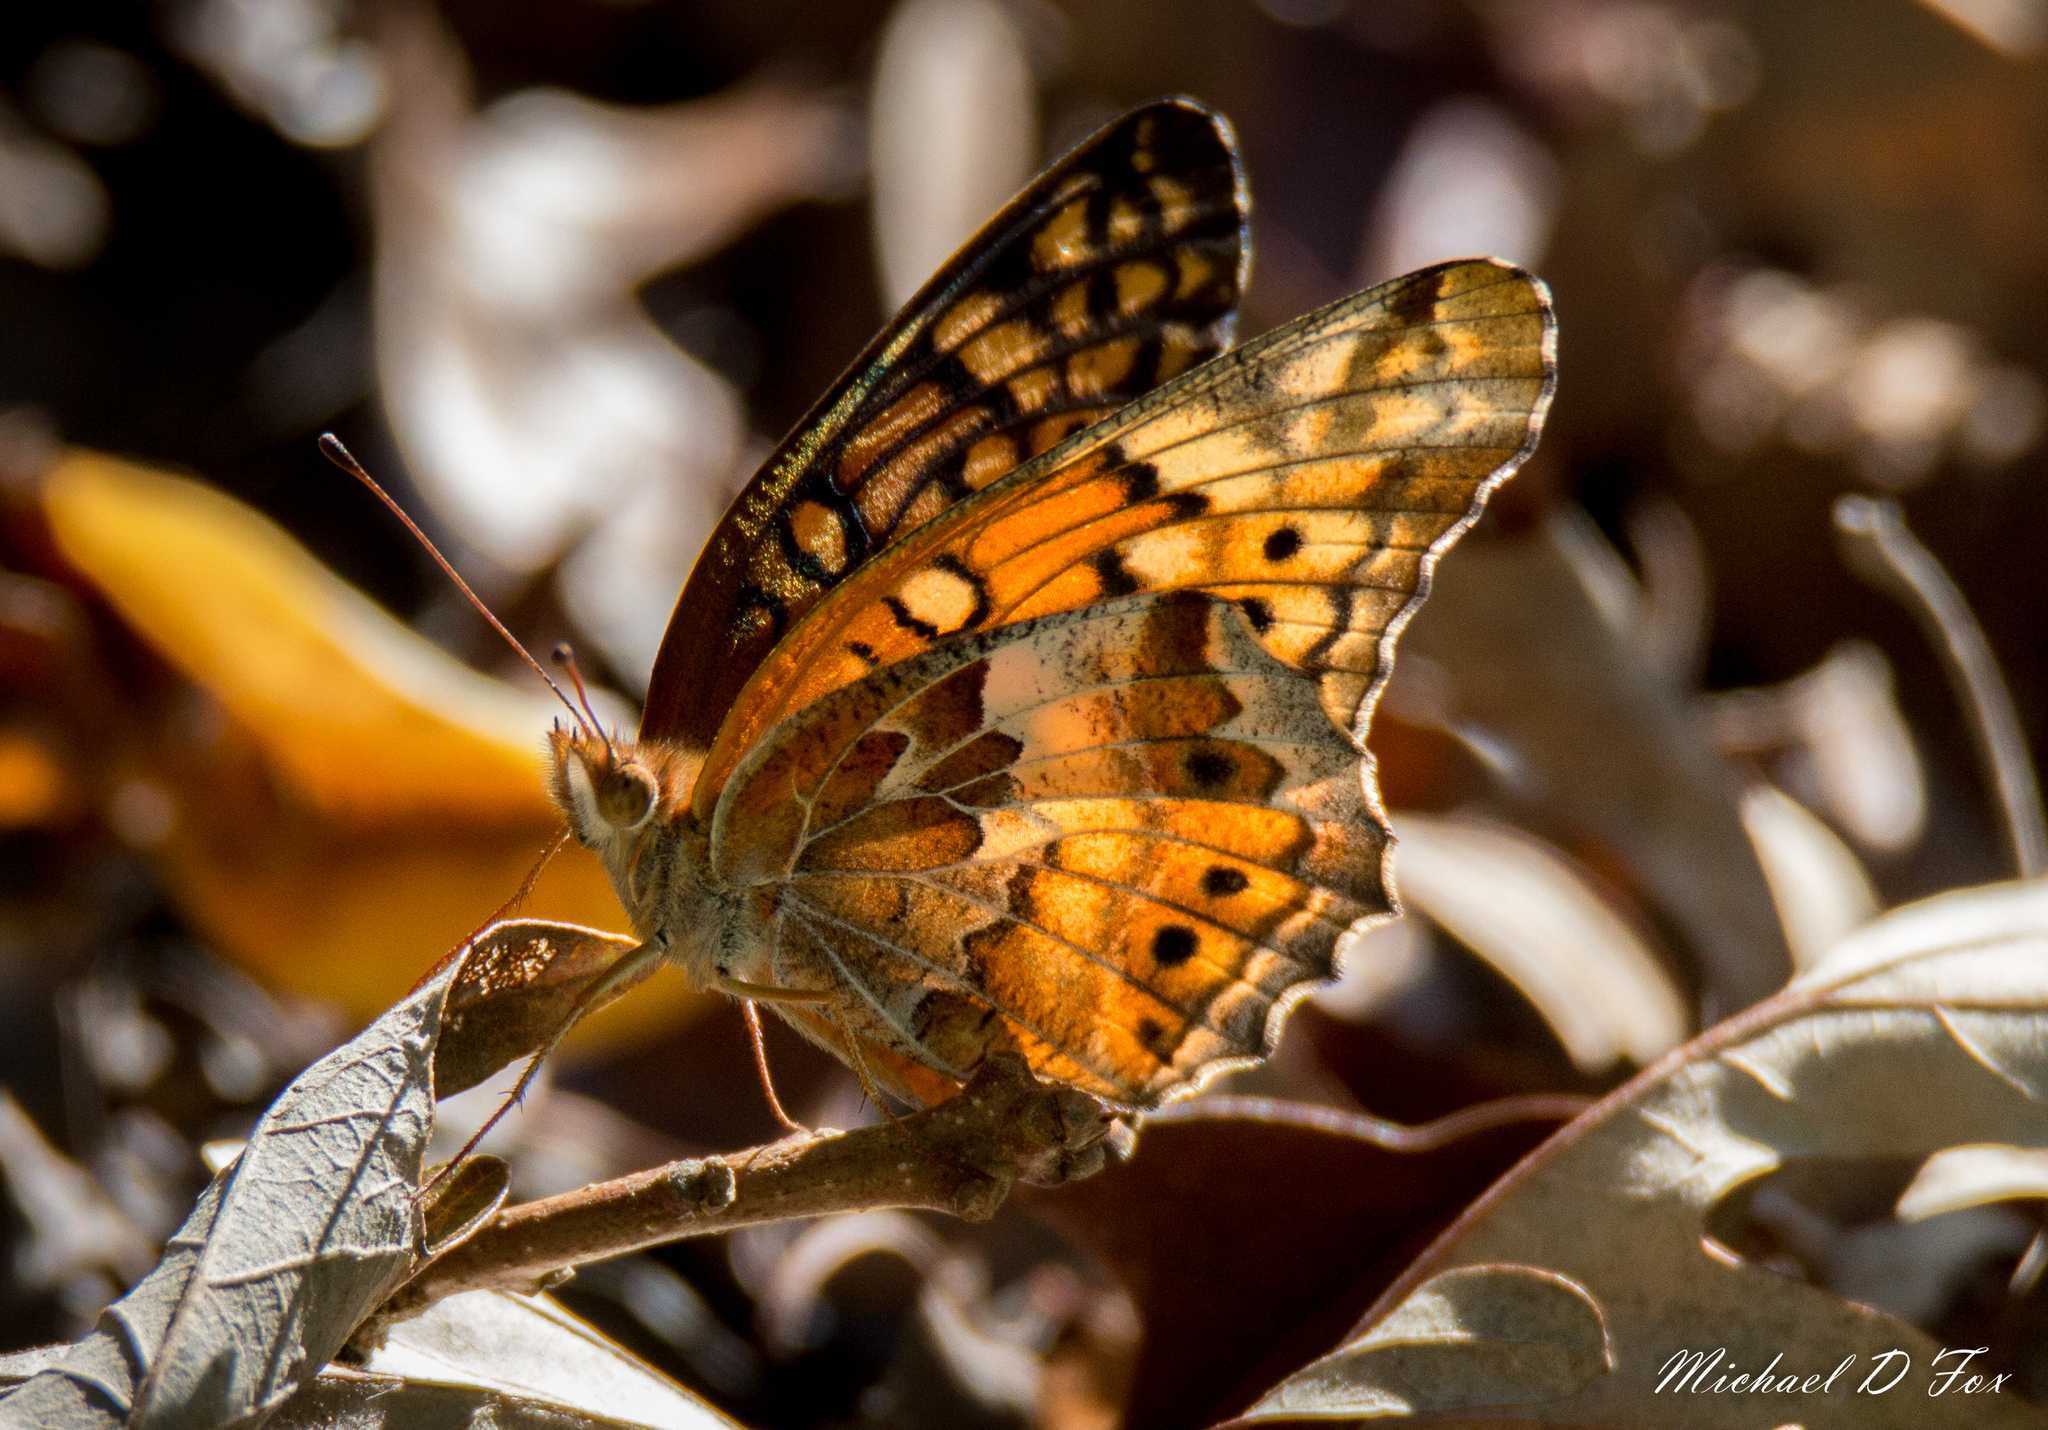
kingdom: Animalia
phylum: Arthropoda
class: Insecta
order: Lepidoptera
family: Nymphalidae
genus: Euptoieta
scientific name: Euptoieta claudia
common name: Variegated fritillary
